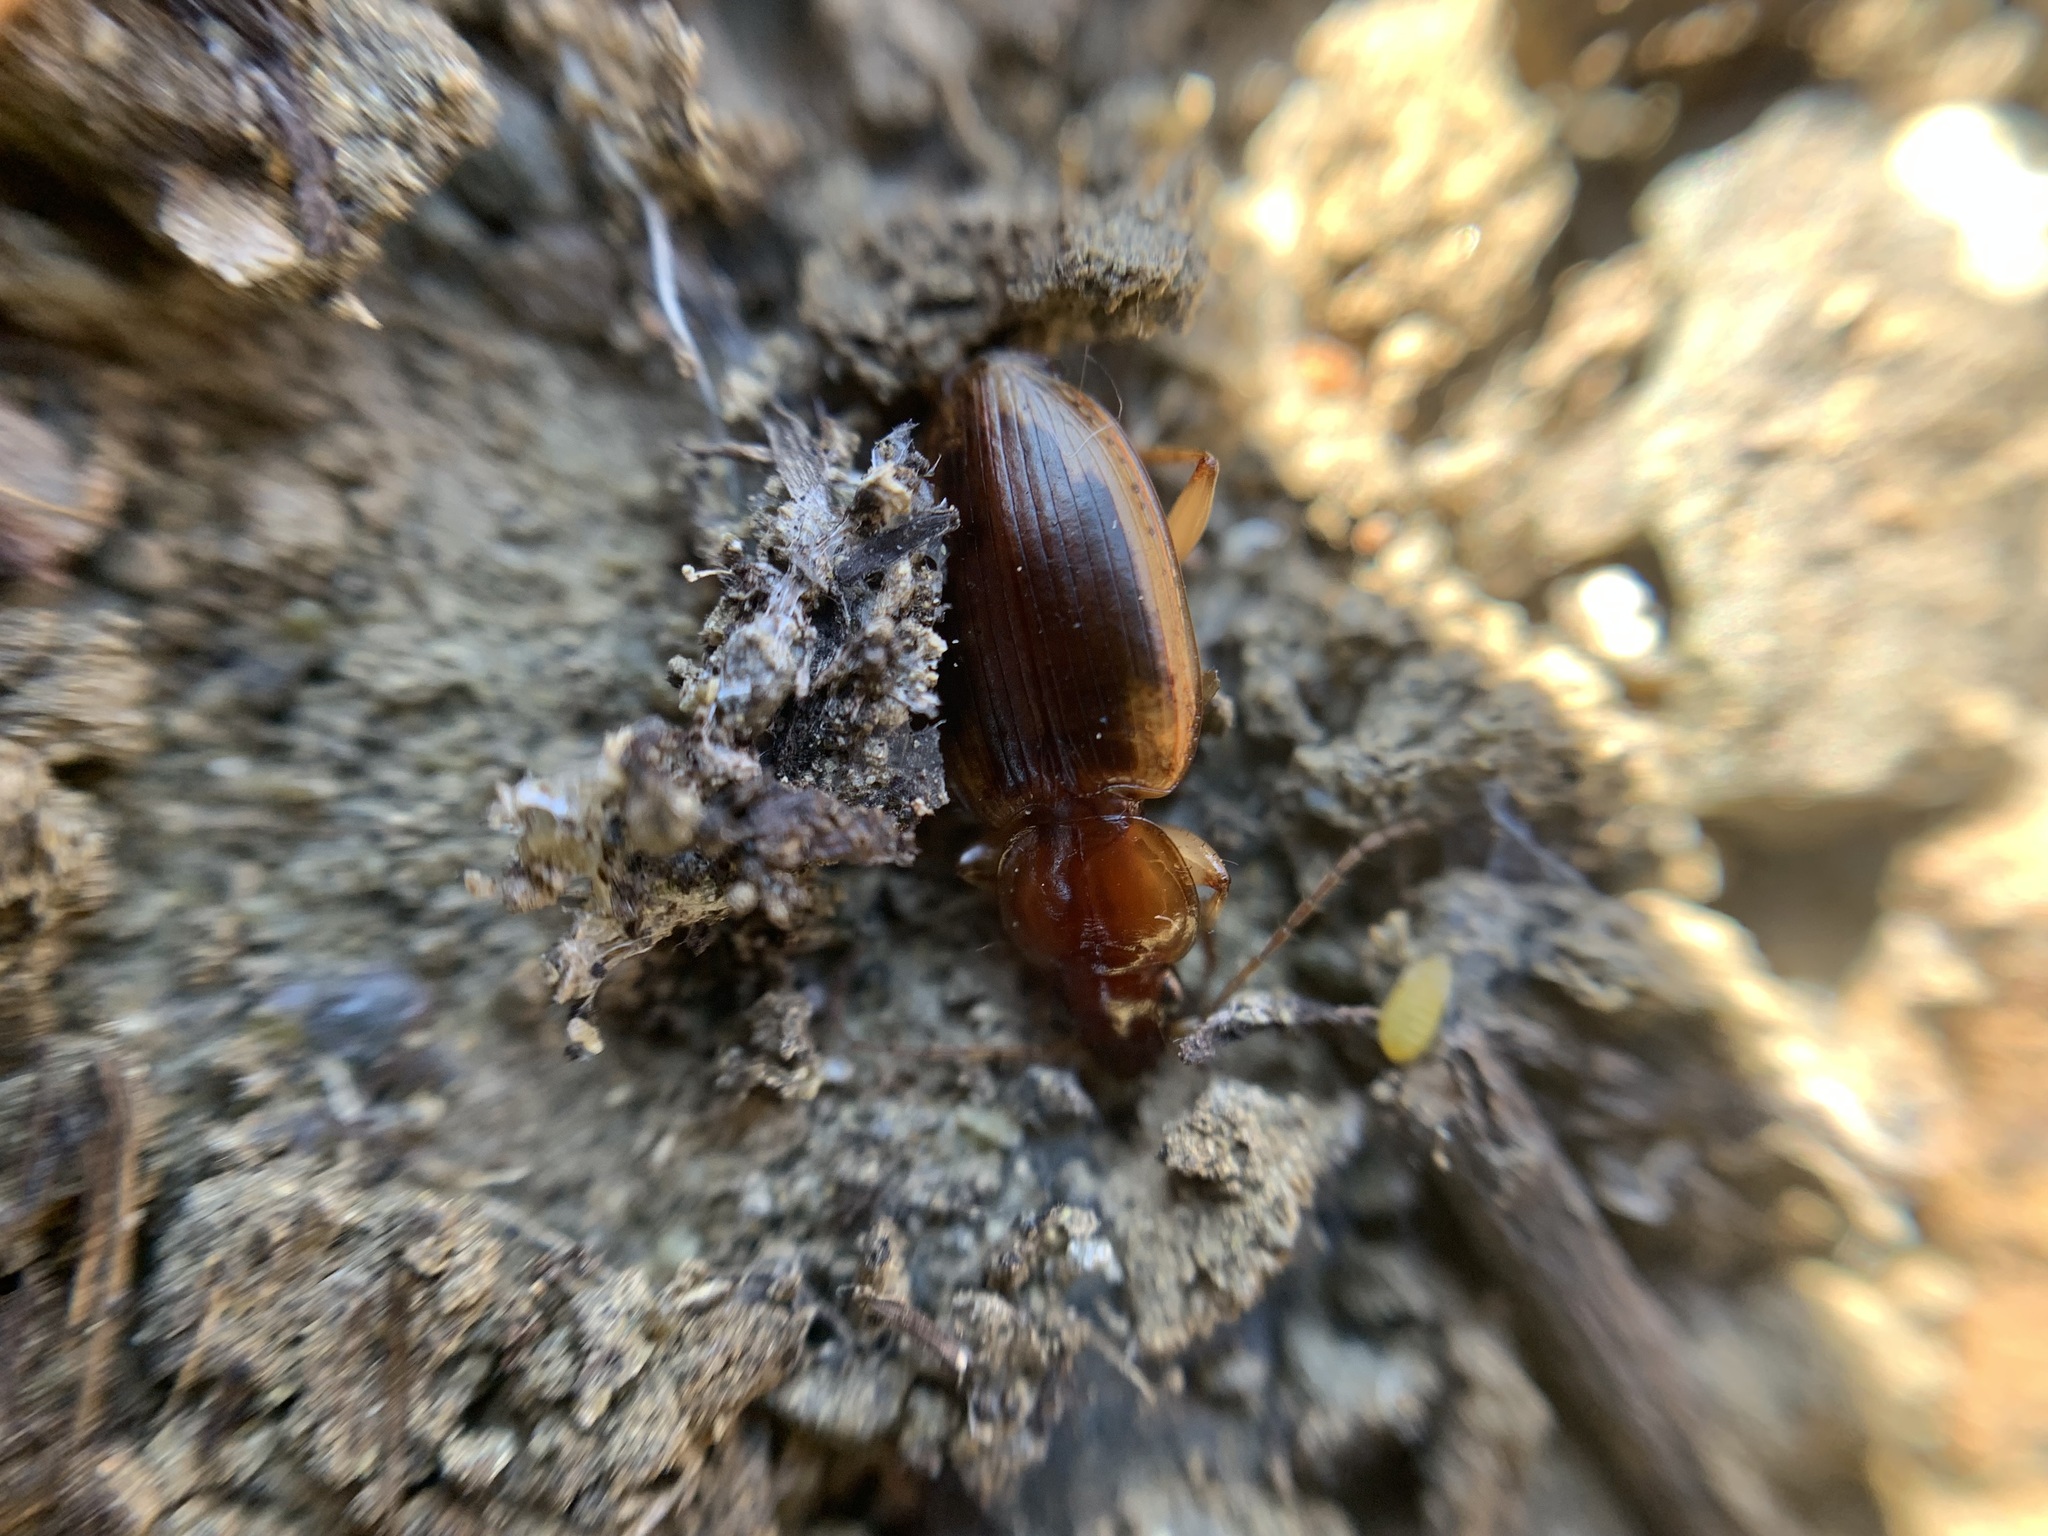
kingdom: Animalia
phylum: Arthropoda
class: Insecta
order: Coleoptera
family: Carabidae
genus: Tanystoma
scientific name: Tanystoma maculicolle
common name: Tule beetle
